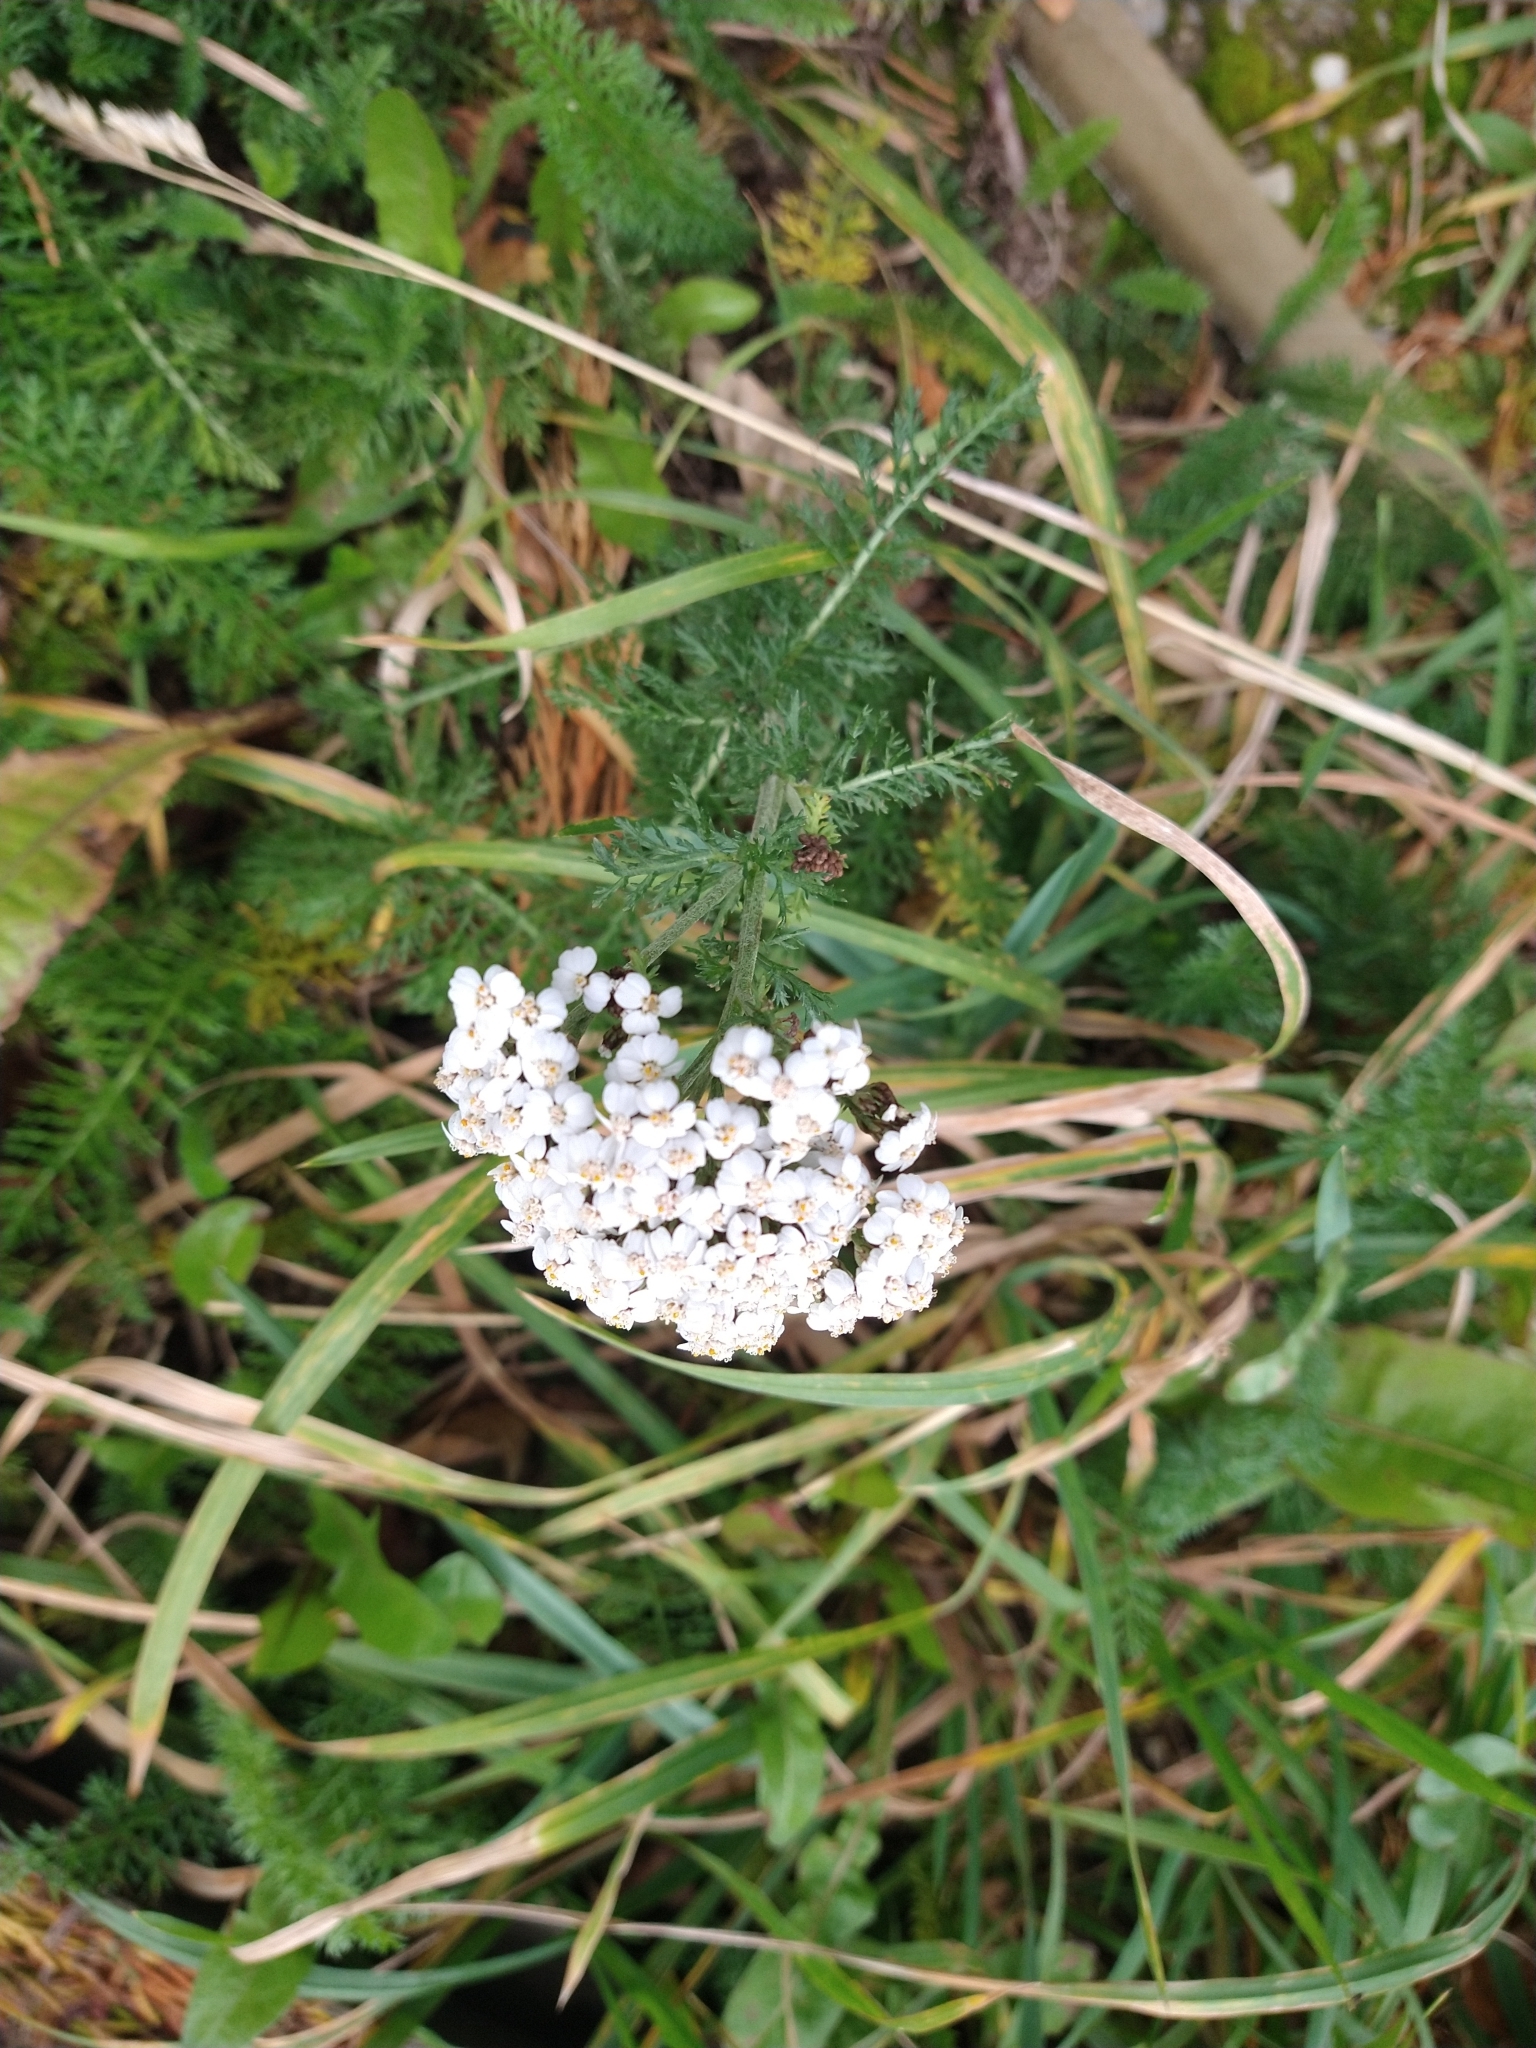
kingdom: Plantae
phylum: Tracheophyta
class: Magnoliopsida
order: Asterales
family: Asteraceae
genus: Achillea
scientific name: Achillea millefolium
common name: Yarrow
